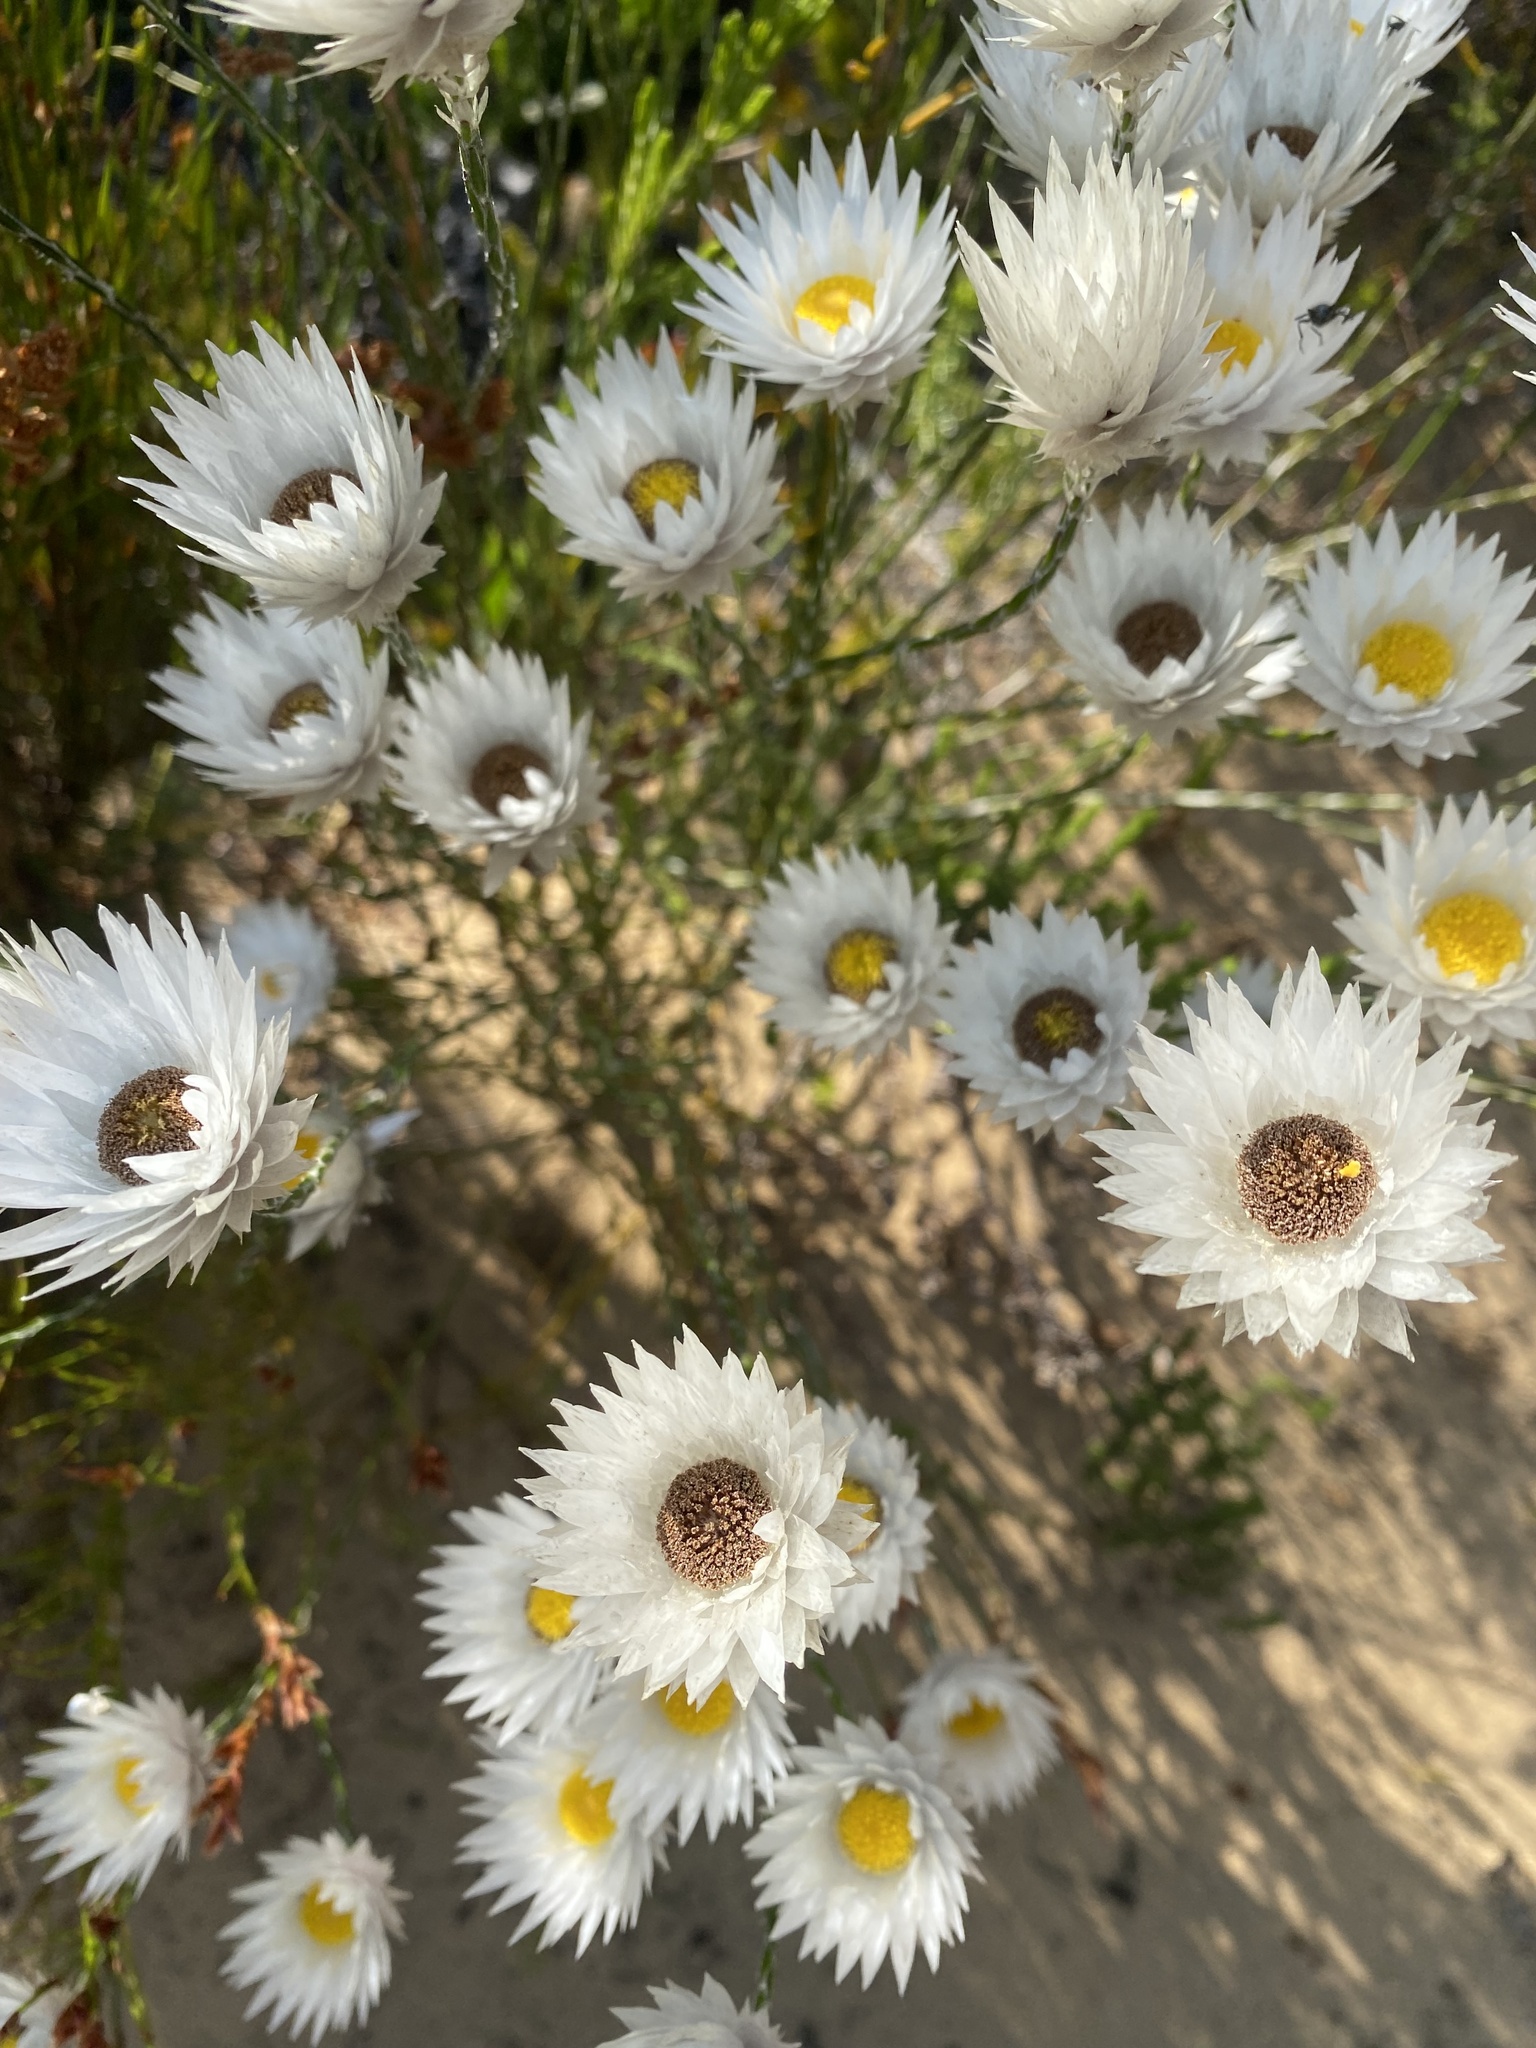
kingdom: Plantae
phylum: Tracheophyta
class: Magnoliopsida
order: Asterales
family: Asteraceae
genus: Edmondia
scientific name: Edmondia sesamoides
